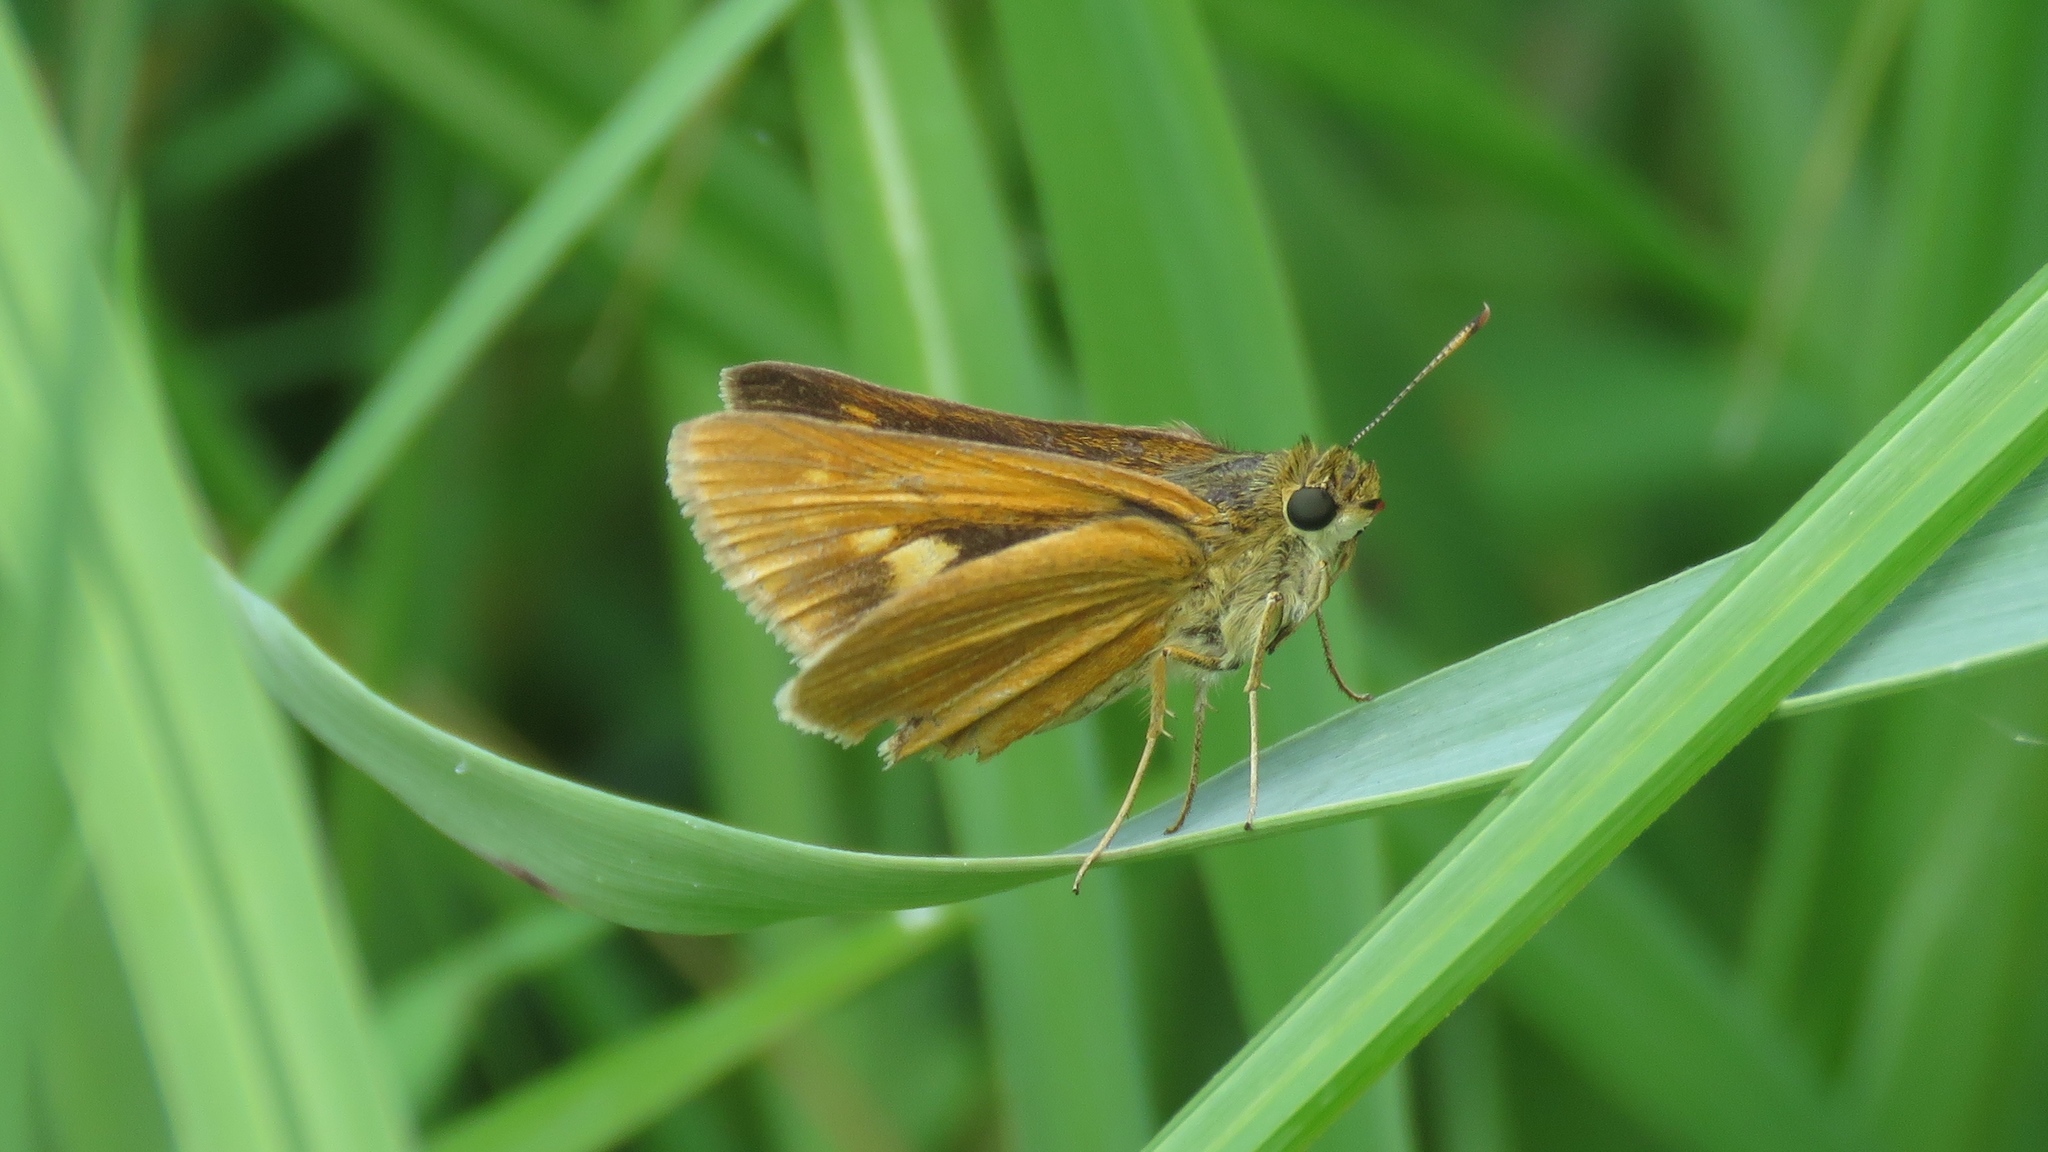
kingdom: Animalia
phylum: Arthropoda
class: Insecta
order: Lepidoptera
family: Hesperiidae
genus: Euphyes
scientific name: Euphyes dion
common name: Dion skipper
